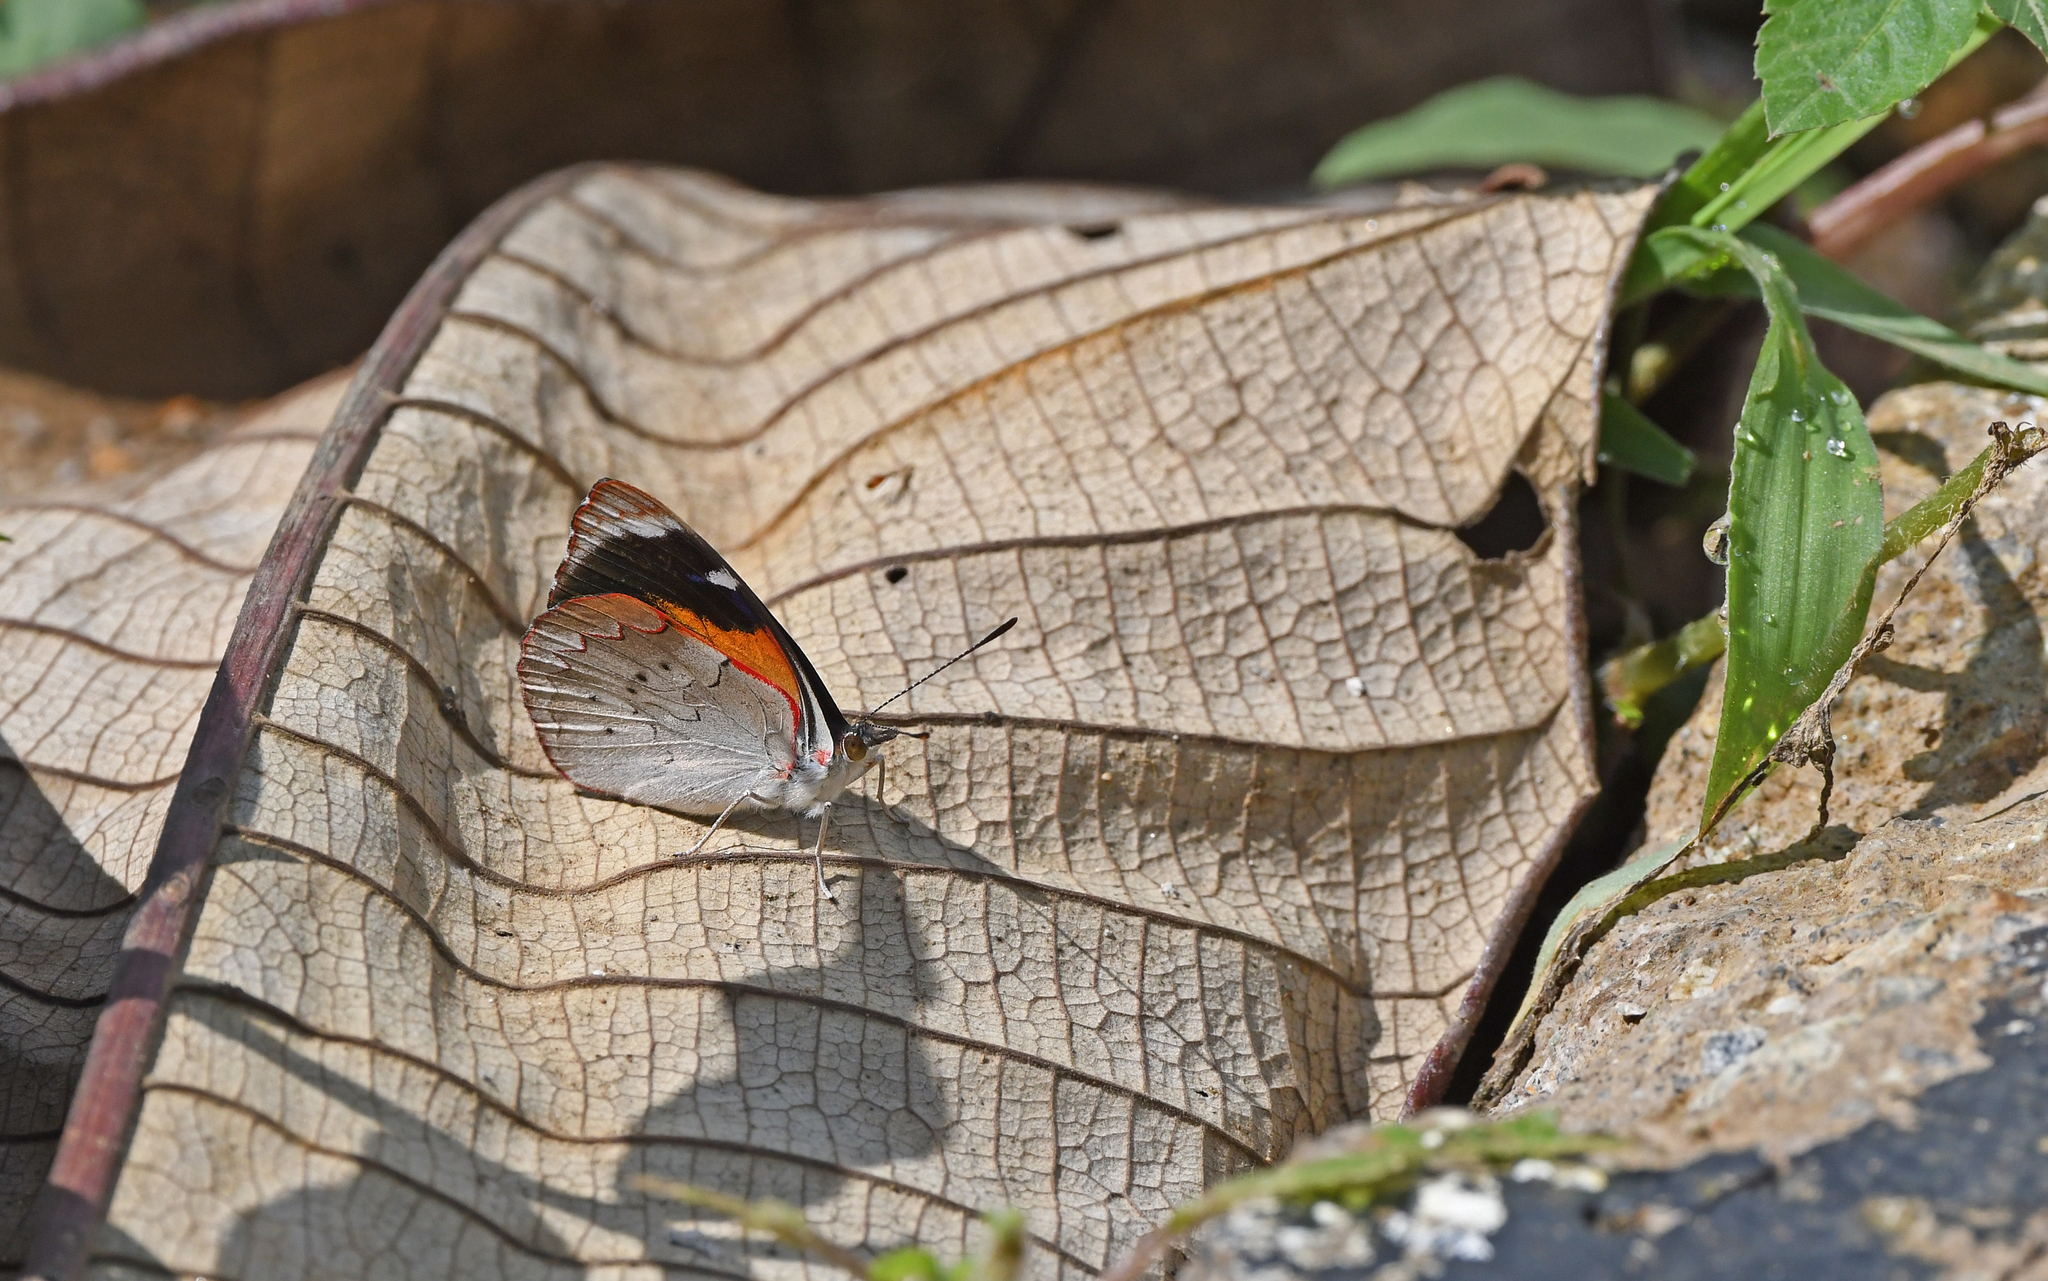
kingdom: Animalia
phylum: Arthropoda
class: Insecta
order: Lepidoptera
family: Nymphalidae
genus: Perisama
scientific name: Perisama calamis
